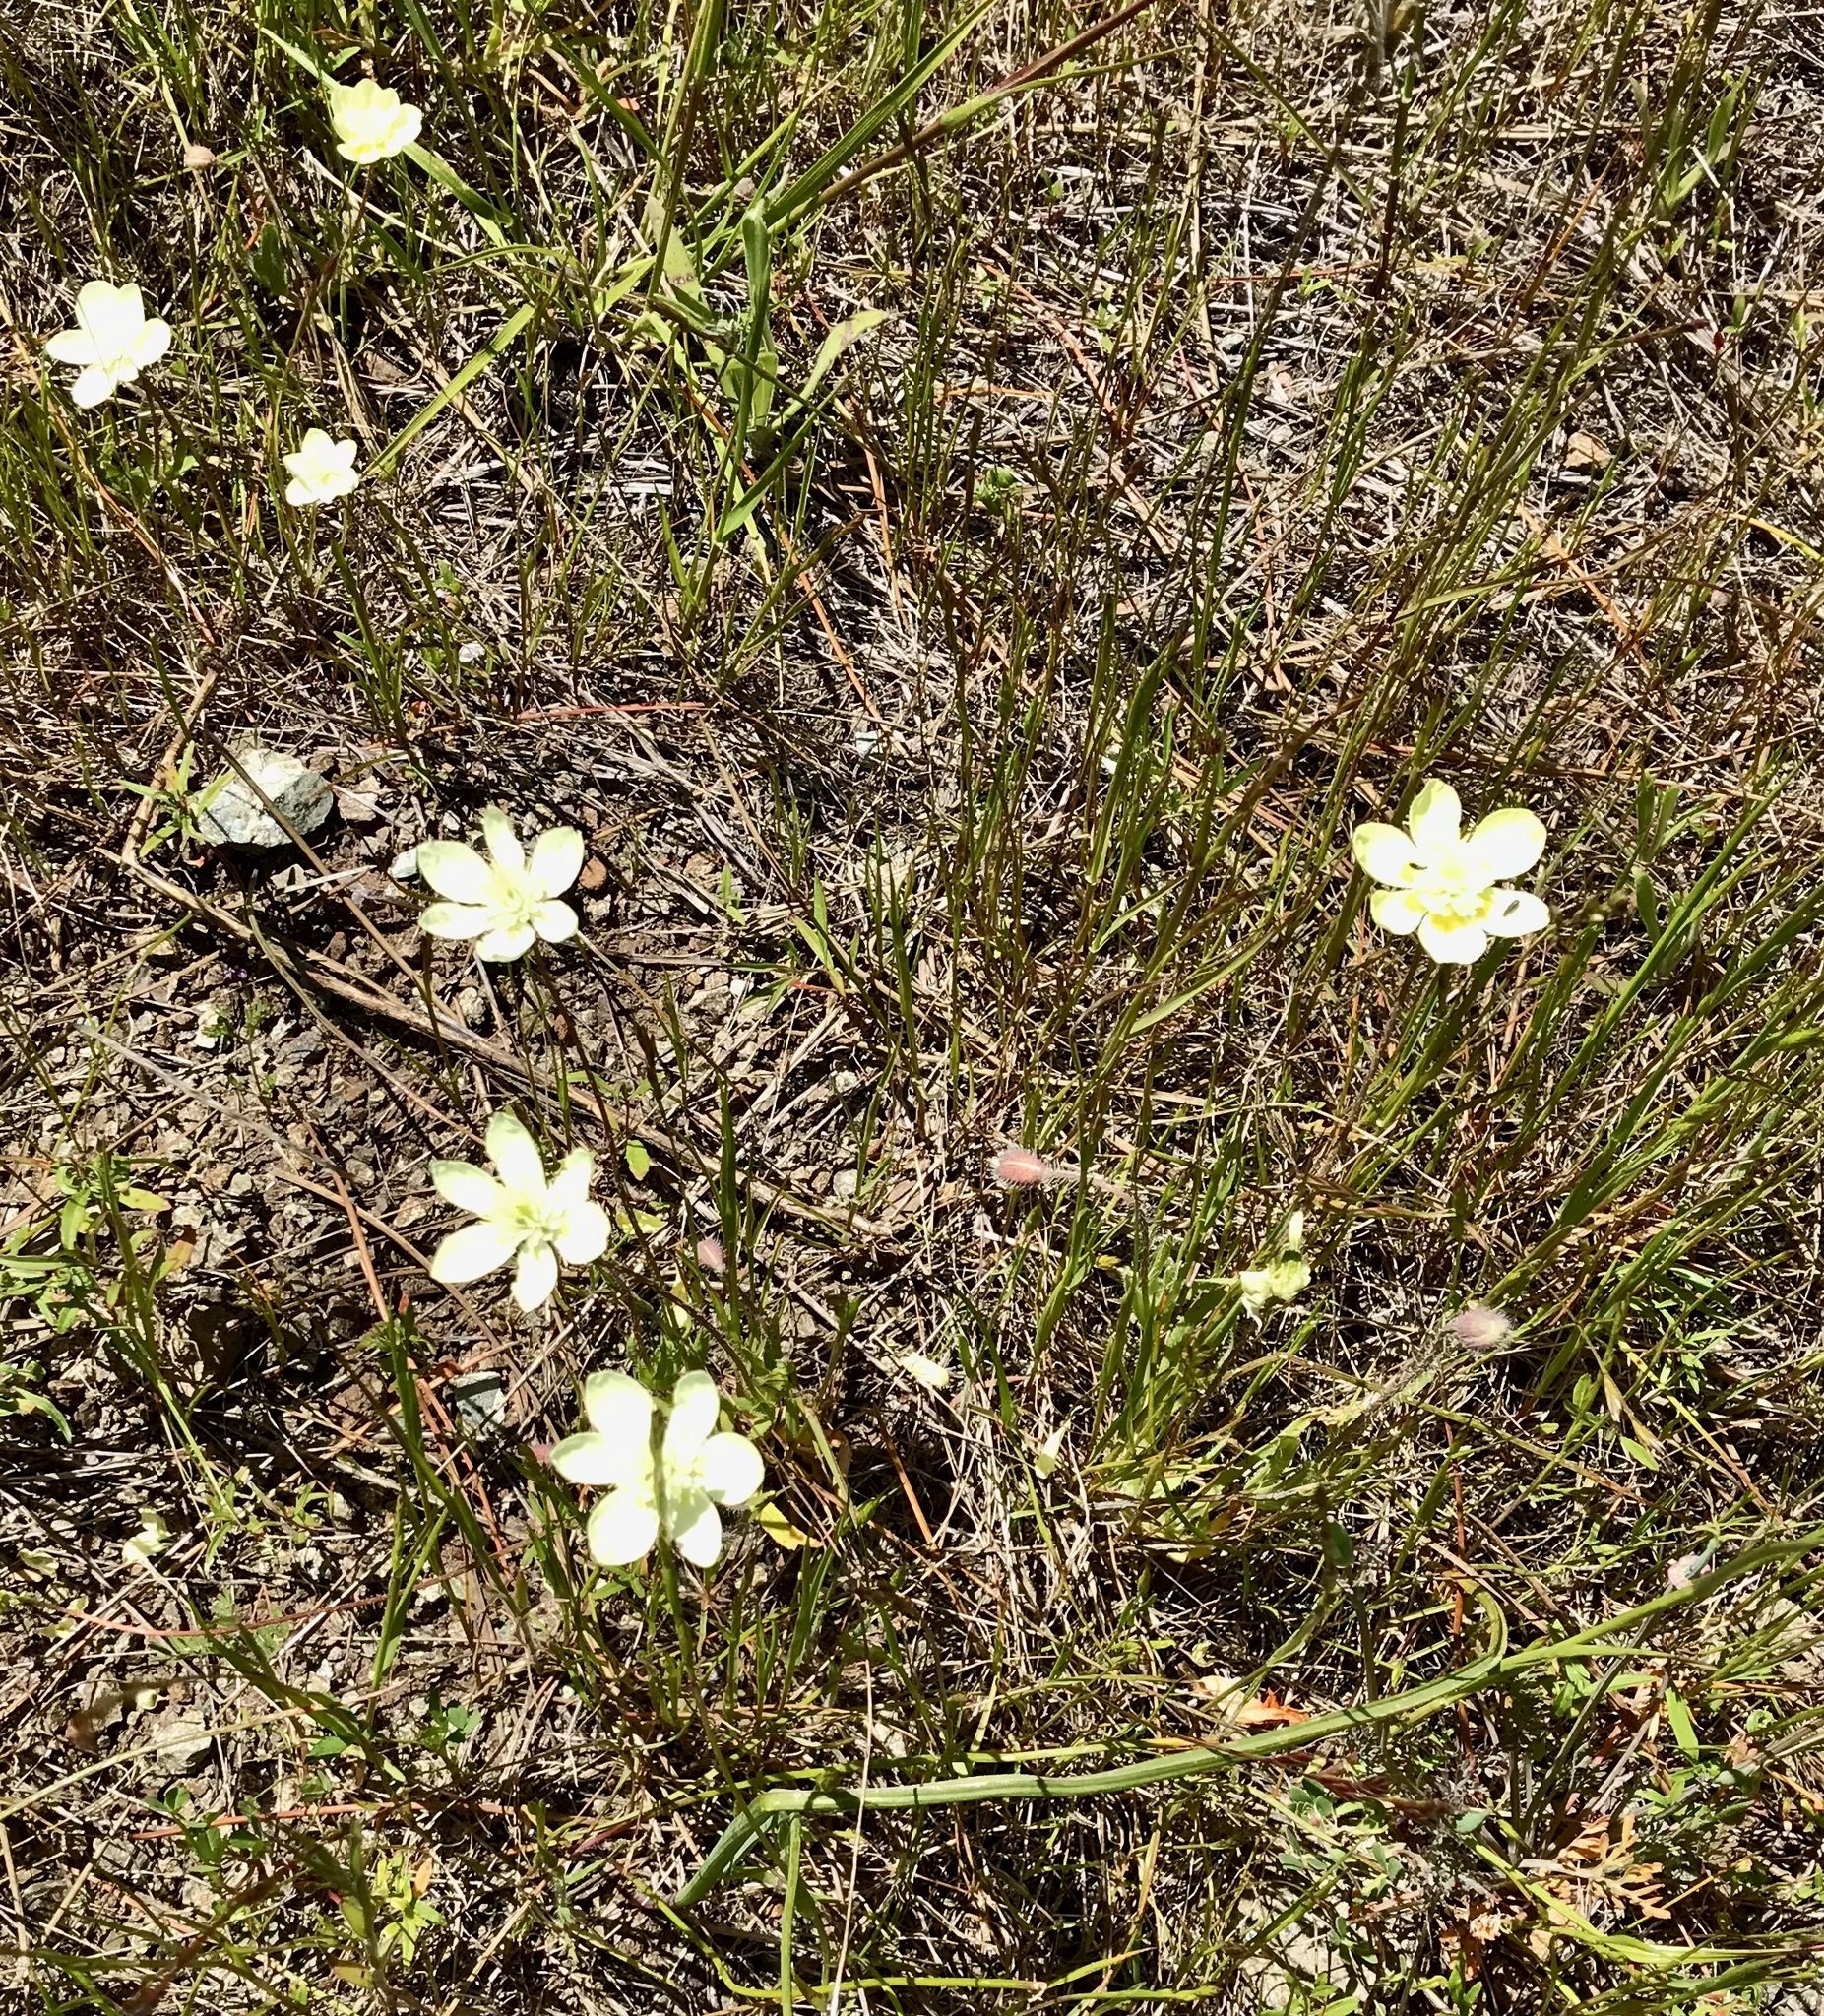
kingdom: Plantae
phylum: Tracheophyta
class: Magnoliopsida
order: Ranunculales
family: Papaveraceae
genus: Platystemon
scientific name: Platystemon californicus
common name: Cream-cups
